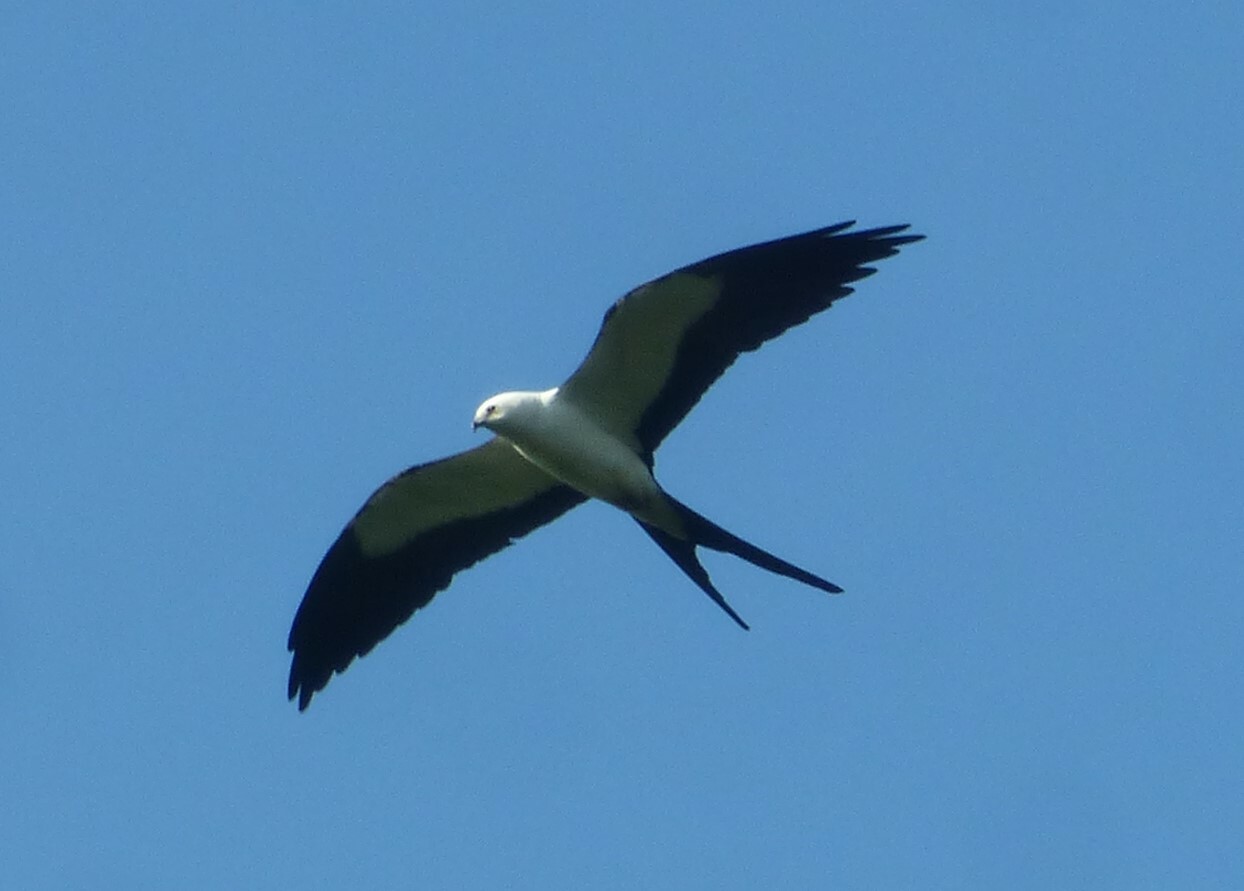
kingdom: Animalia
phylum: Chordata
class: Aves
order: Accipitriformes
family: Accipitridae
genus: Elanoides
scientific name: Elanoides forficatus
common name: Swallow-tailed kite
